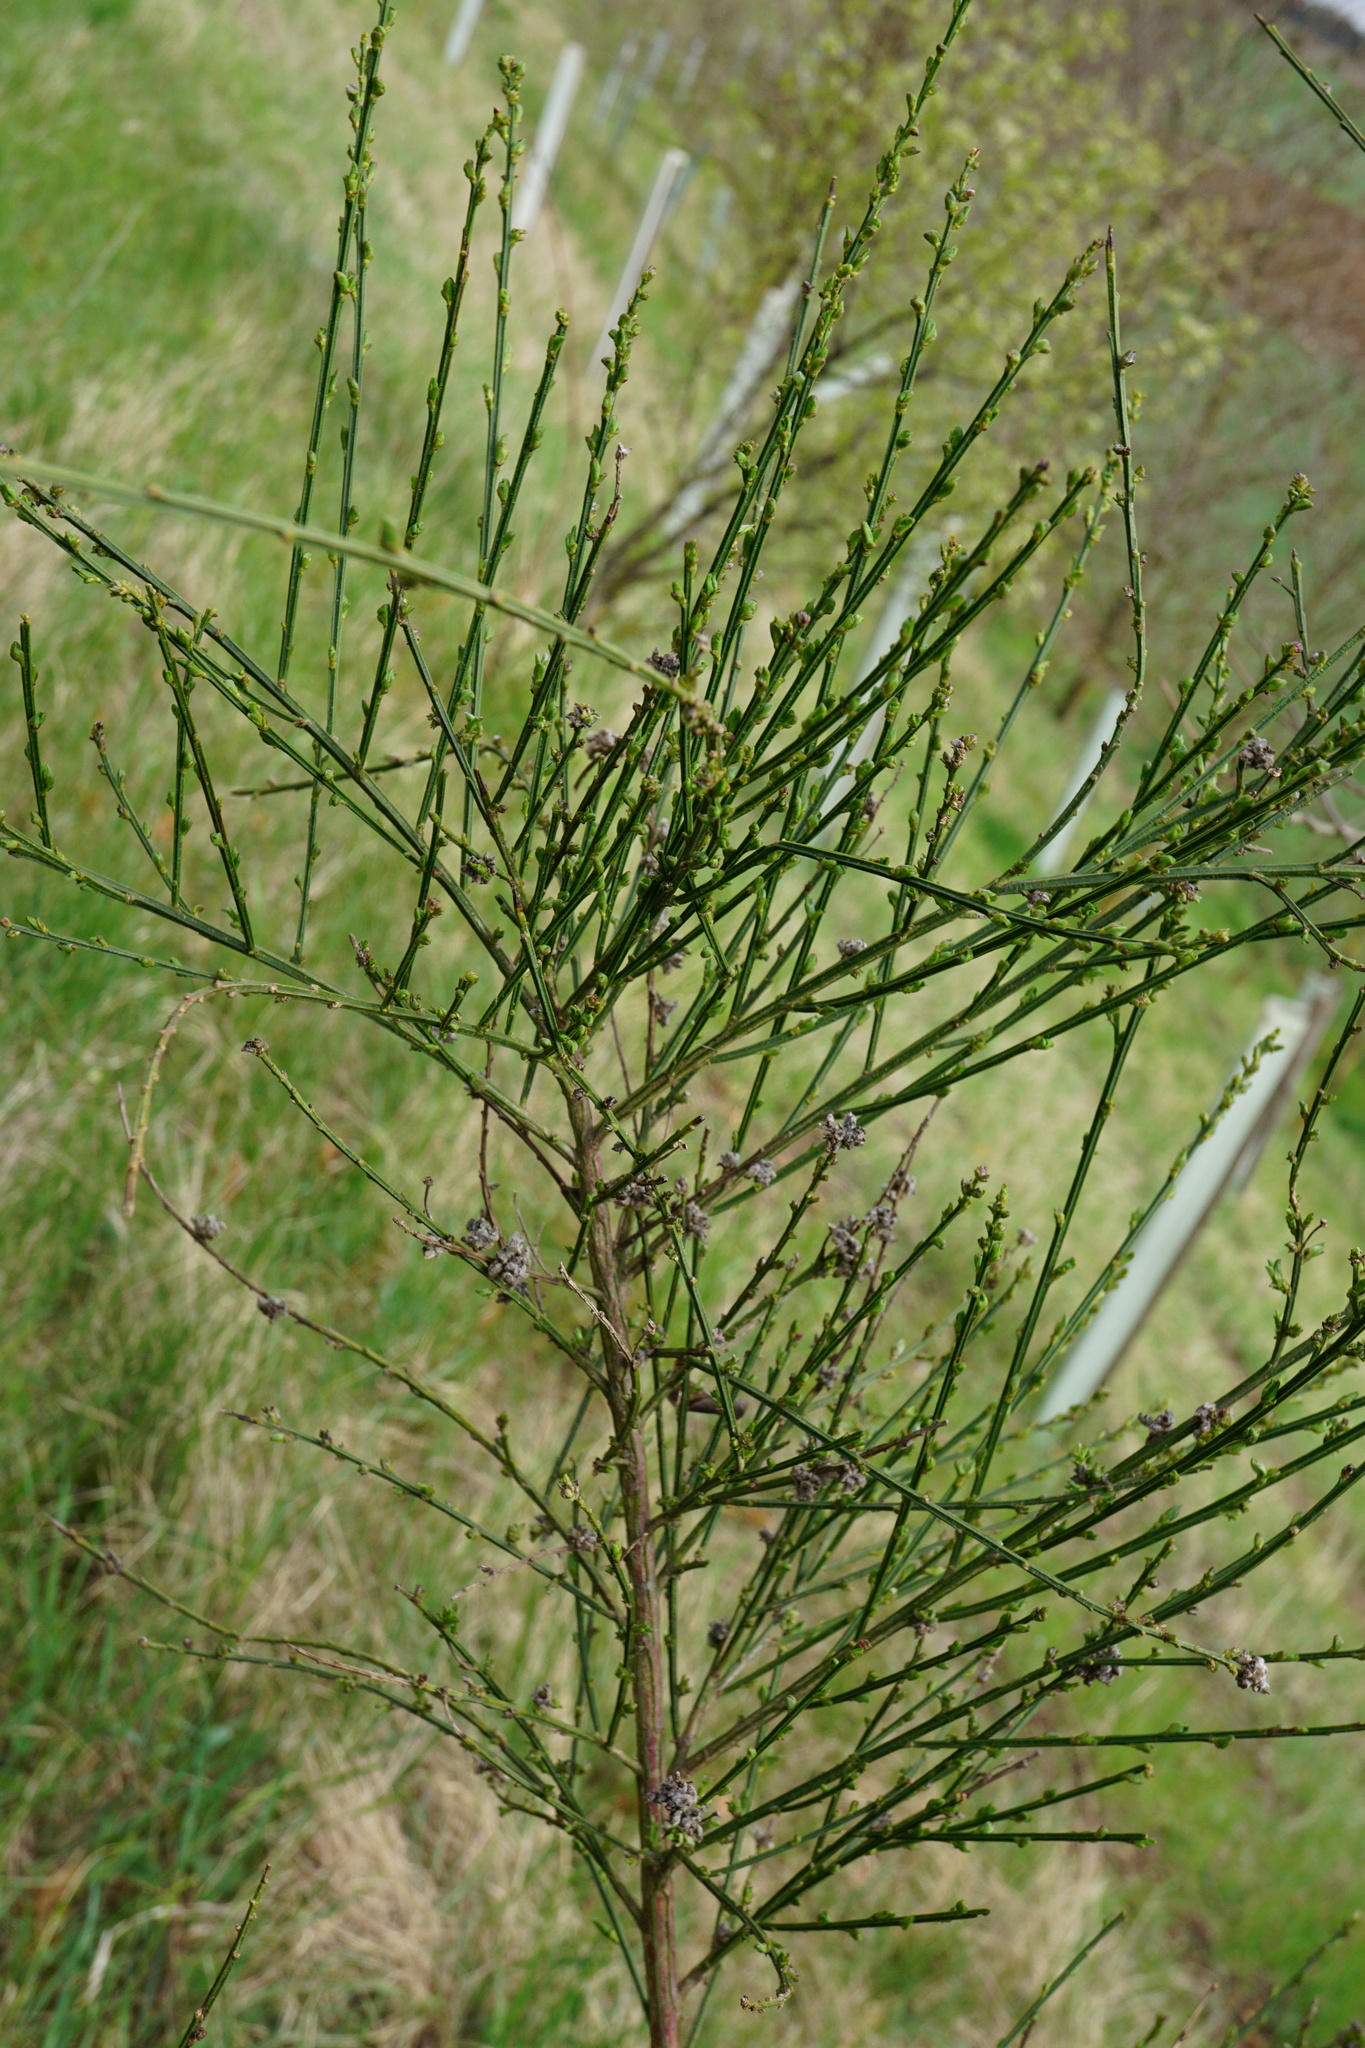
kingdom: Plantae
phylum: Tracheophyta
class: Magnoliopsida
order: Fabales
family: Fabaceae
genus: Cytisus
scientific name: Cytisus scoparius
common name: Scotch broom
